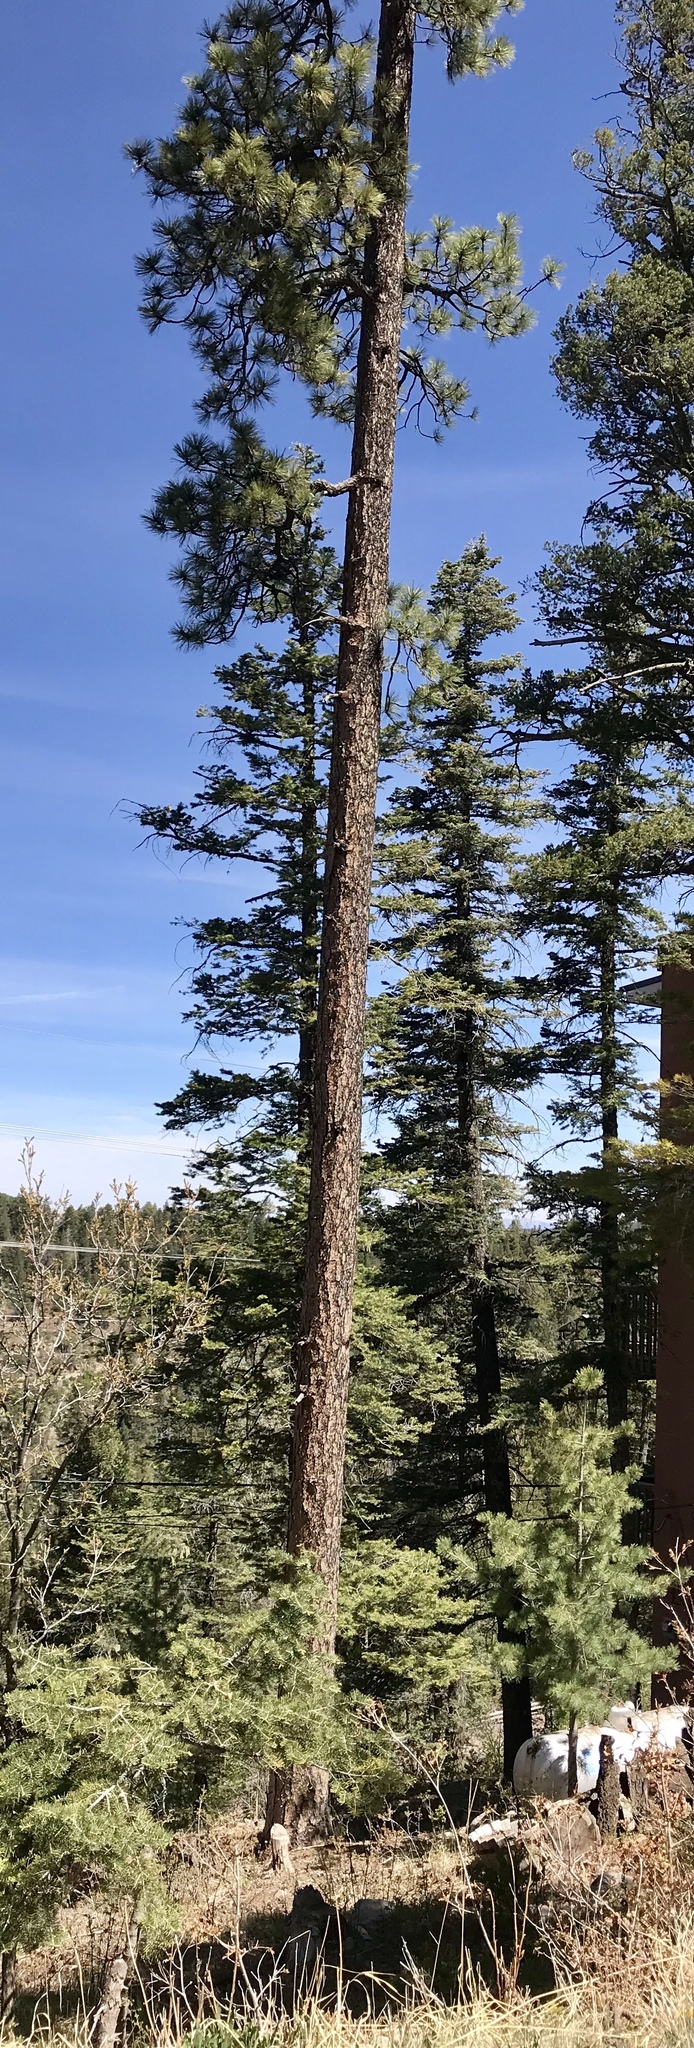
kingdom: Plantae
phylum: Tracheophyta
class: Pinopsida
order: Pinales
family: Pinaceae
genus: Pinus
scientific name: Pinus ponderosa
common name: Western yellow-pine
